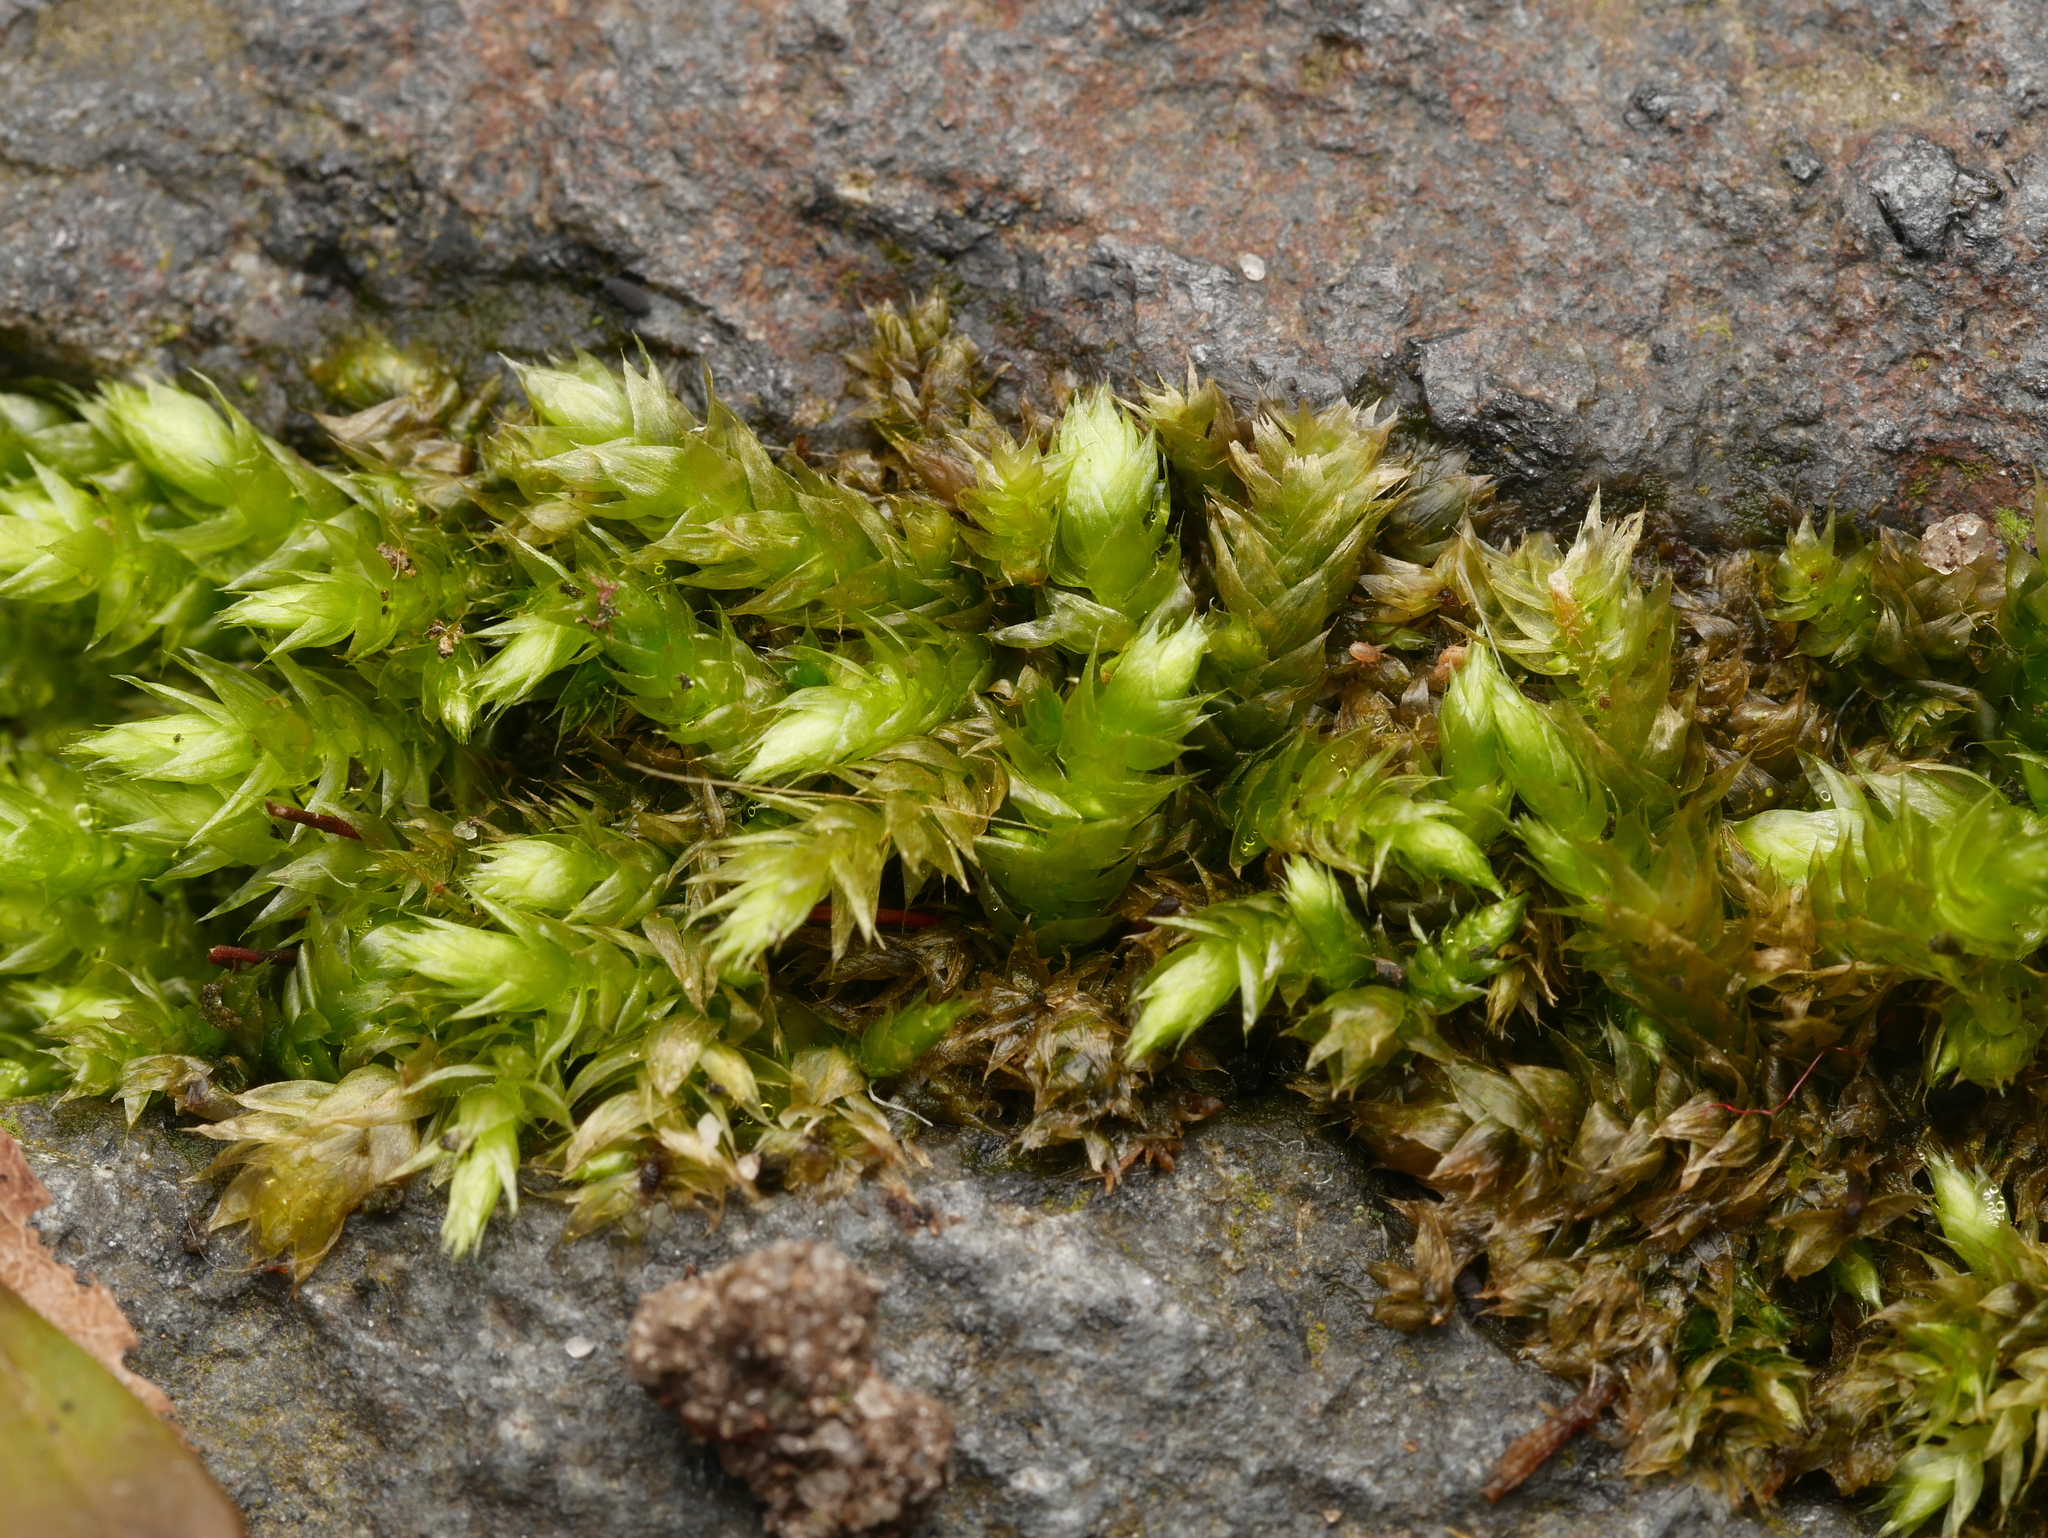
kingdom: Plantae
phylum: Bryophyta
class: Bryopsida
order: Hypnales
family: Brachytheciaceae
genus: Brachythecium
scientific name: Brachythecium rutabulum
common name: Rough-stalked feather-moss
